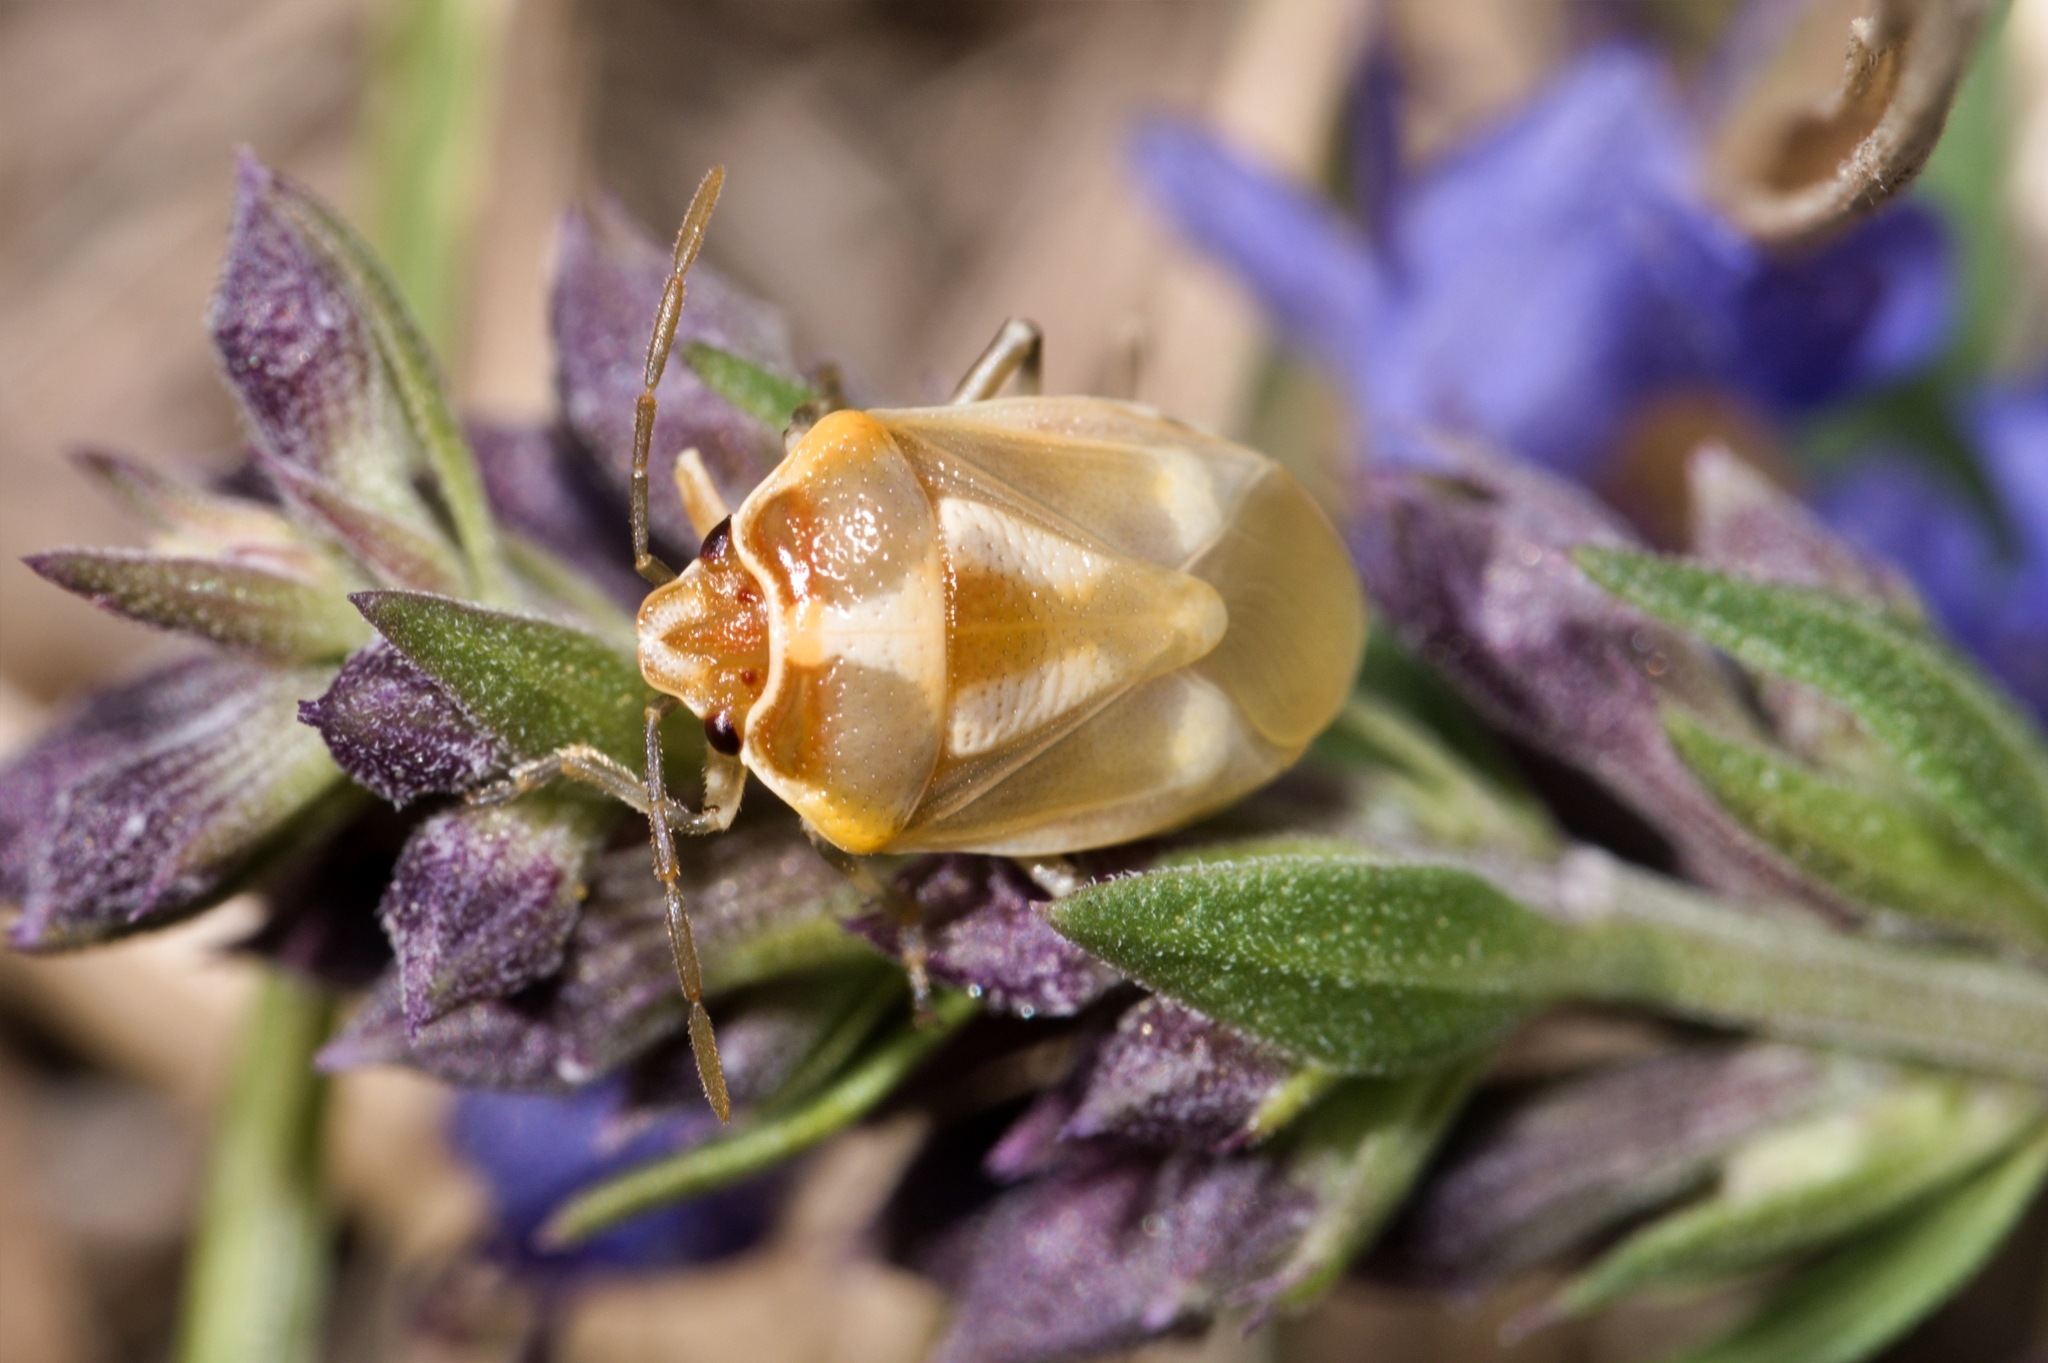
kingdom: Animalia
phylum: Arthropoda
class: Insecta
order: Hemiptera
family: Pentatomidae
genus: Eurydema
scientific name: Eurydema oleracea
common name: Cabbage bug
